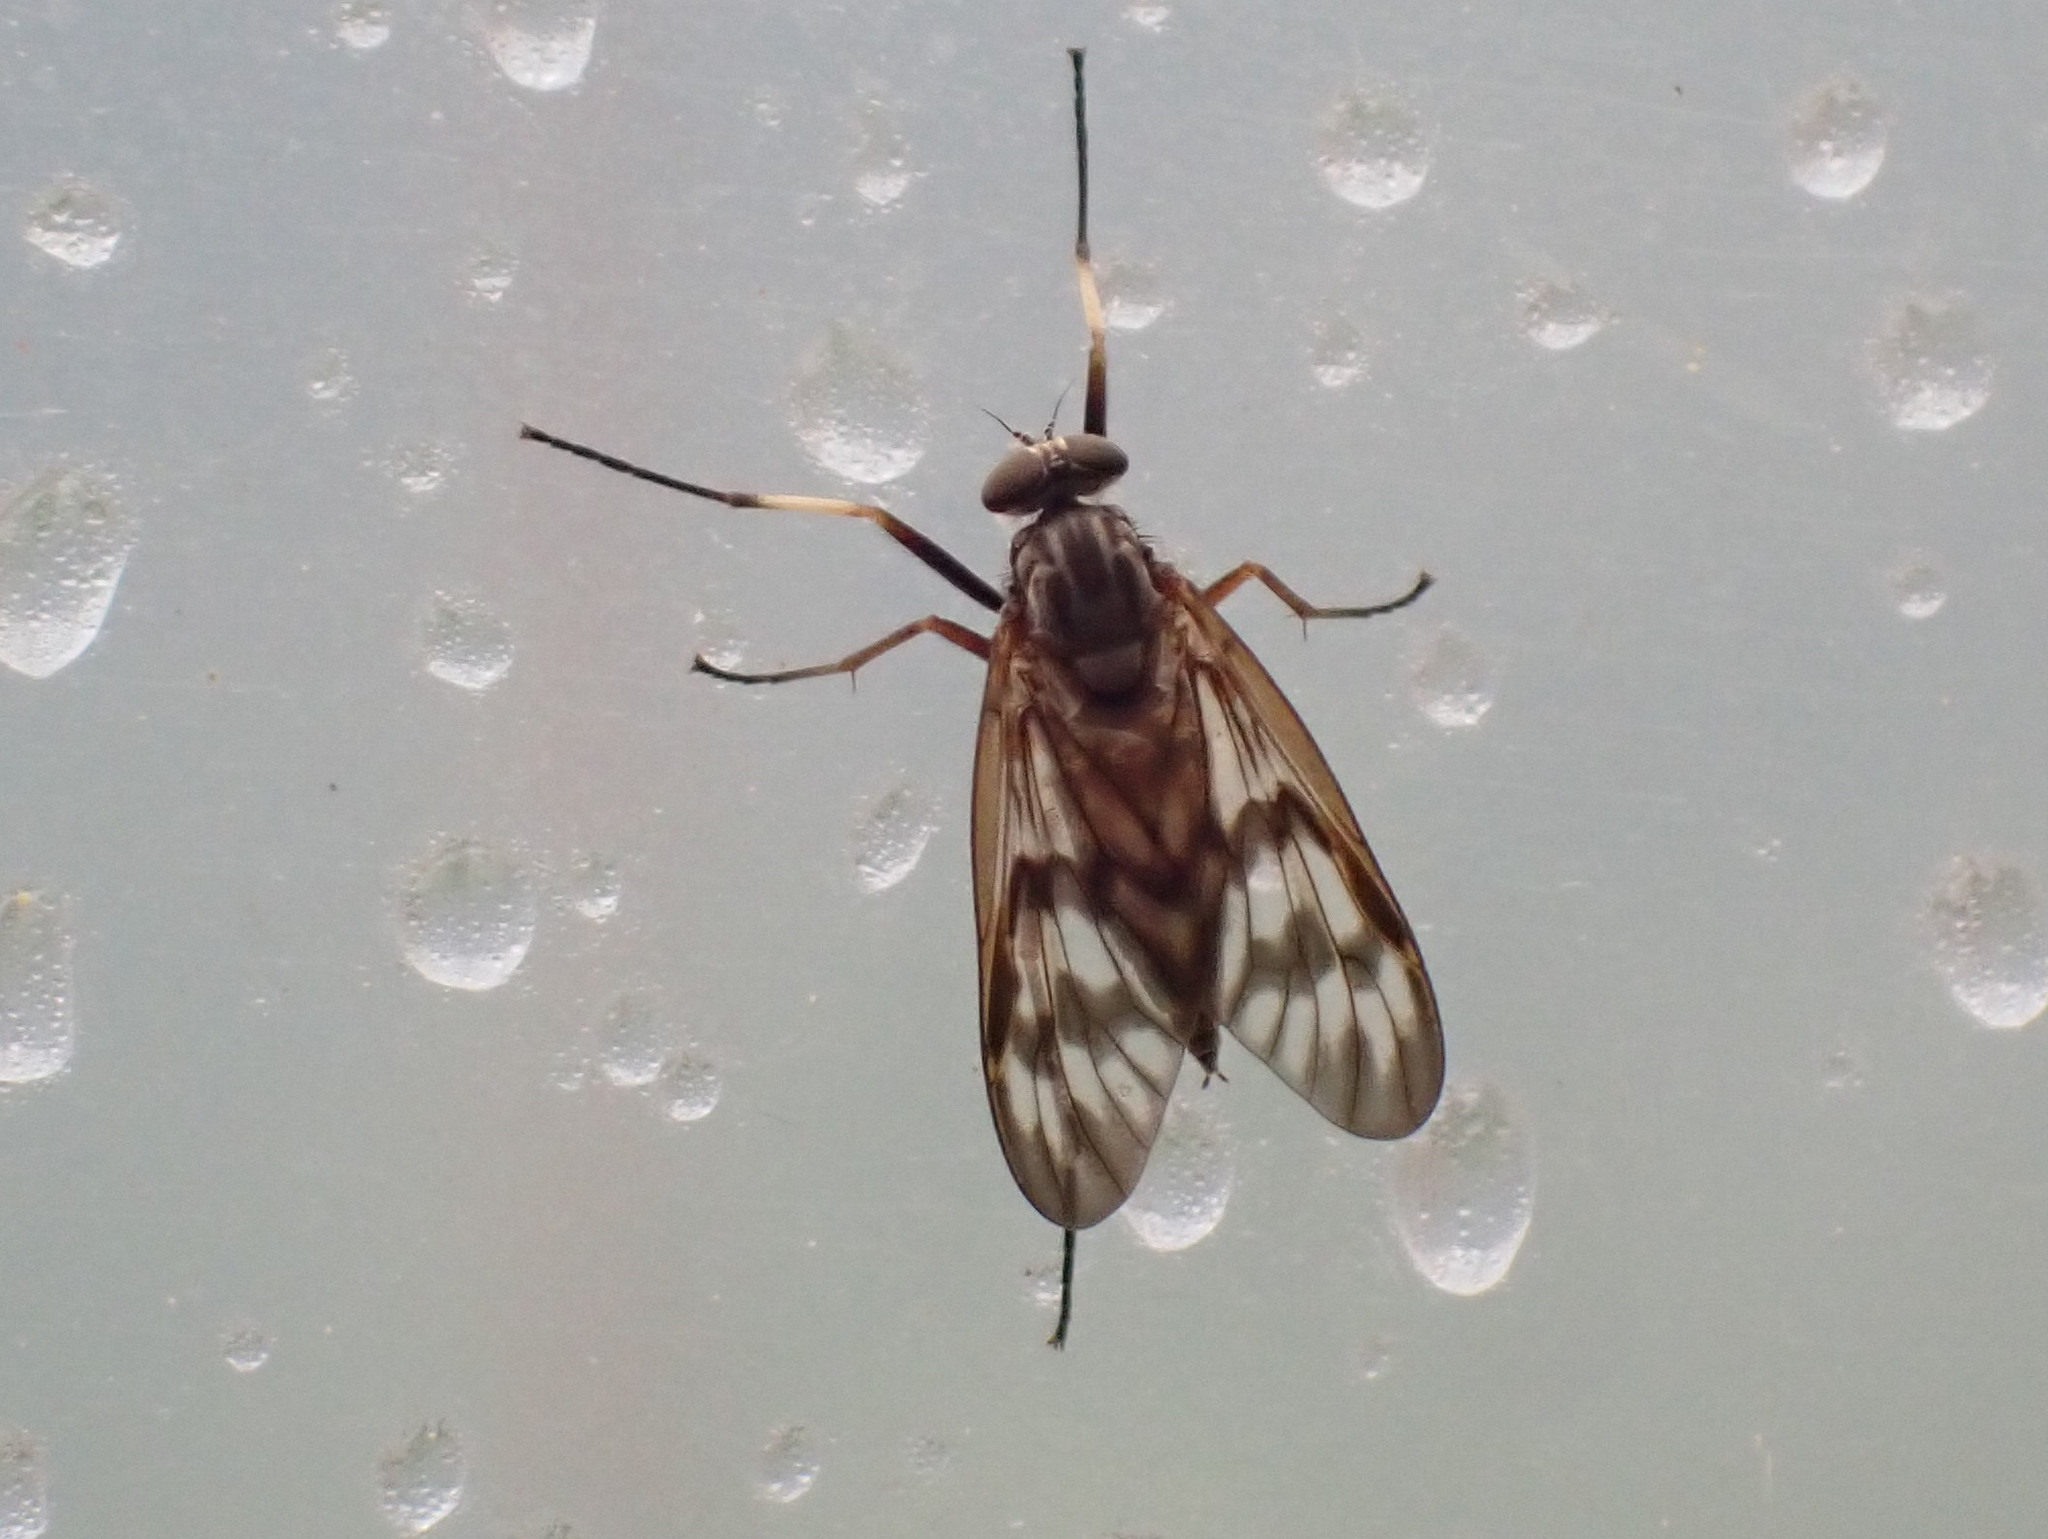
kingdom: Animalia
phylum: Arthropoda
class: Insecta
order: Diptera
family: Rhagionidae
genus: Rhagio
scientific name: Rhagio mystaceus
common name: Common snipe fly
